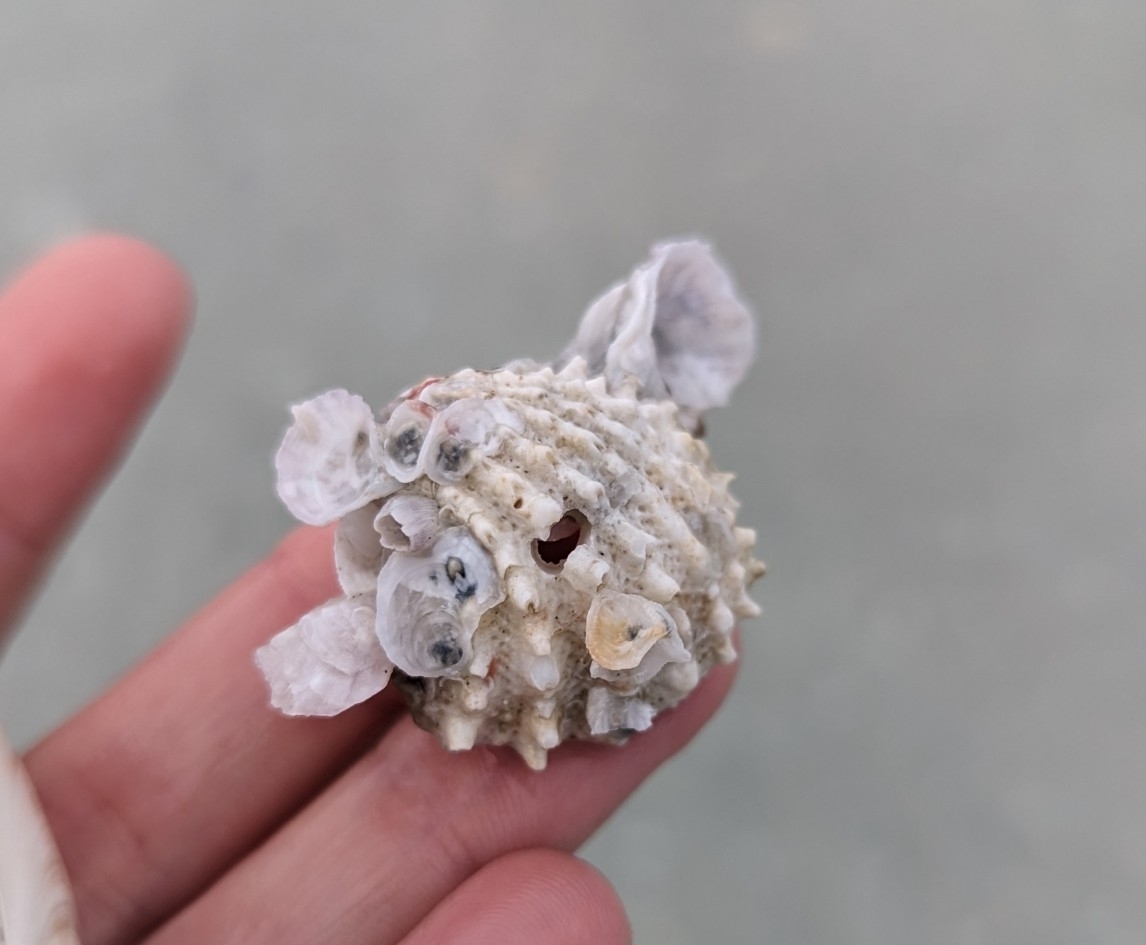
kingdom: Animalia
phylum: Mollusca
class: Bivalvia
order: Venerida
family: Chamidae
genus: Arcinella
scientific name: Arcinella cornuta
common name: Florida spiny jewel box
